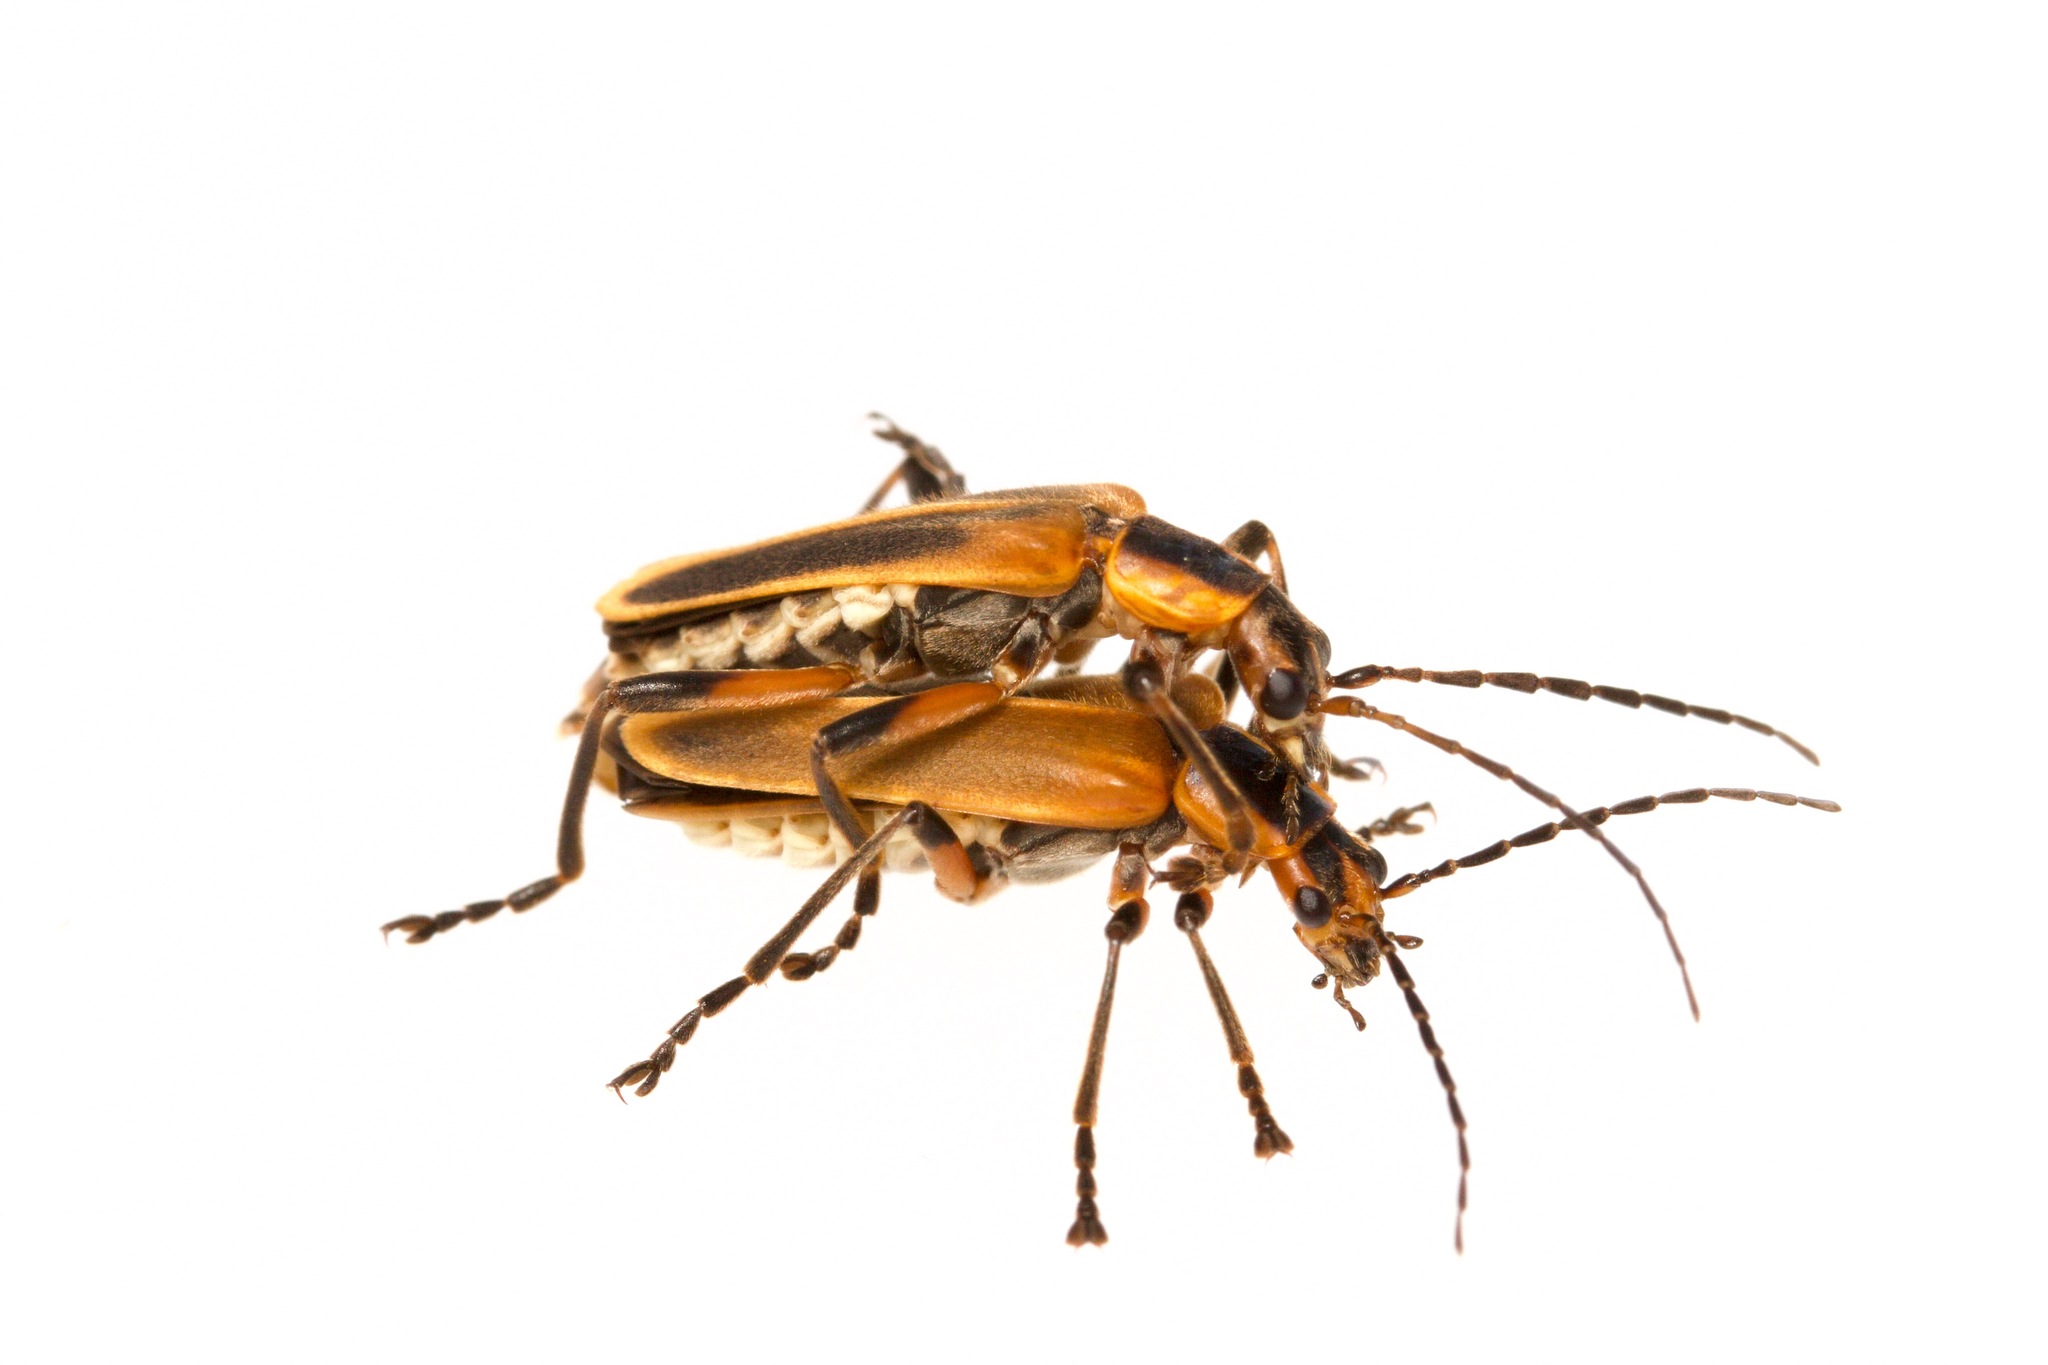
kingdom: Animalia
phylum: Arthropoda
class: Insecta
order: Coleoptera
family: Cantharidae
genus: Chauliognathus
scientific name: Chauliognathus marginatus
